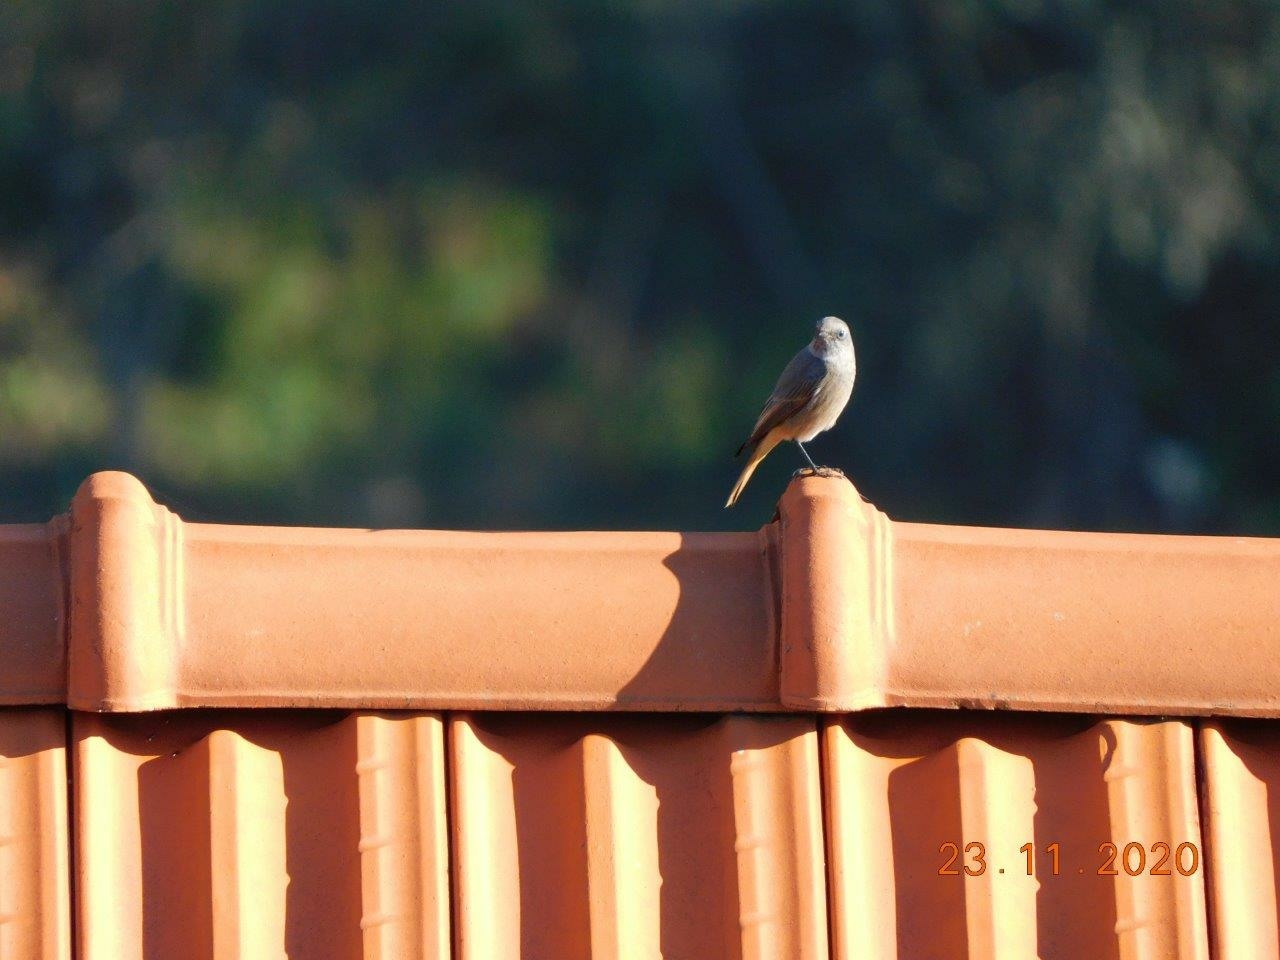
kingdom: Animalia
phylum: Chordata
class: Aves
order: Passeriformes
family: Muscicapidae
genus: Phoenicurus
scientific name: Phoenicurus ochruros
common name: Black redstart
